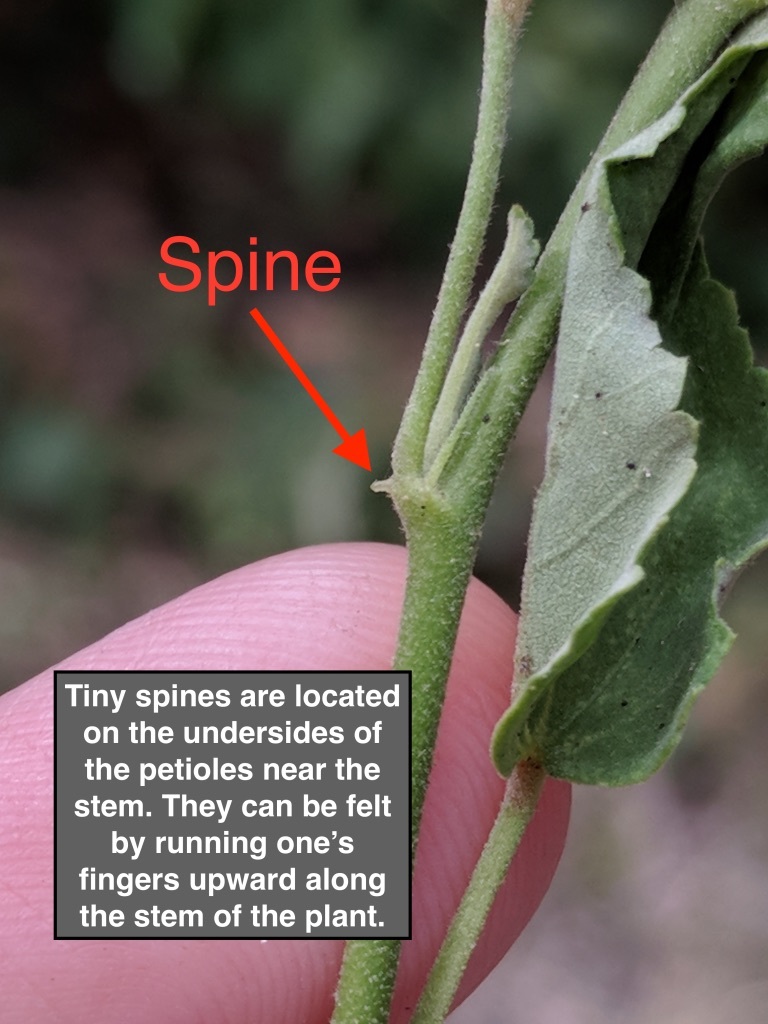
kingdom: Plantae
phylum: Tracheophyta
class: Magnoliopsida
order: Malvales
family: Malvaceae
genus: Sida
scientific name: Sida spinosa
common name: Prickly fanpetals
